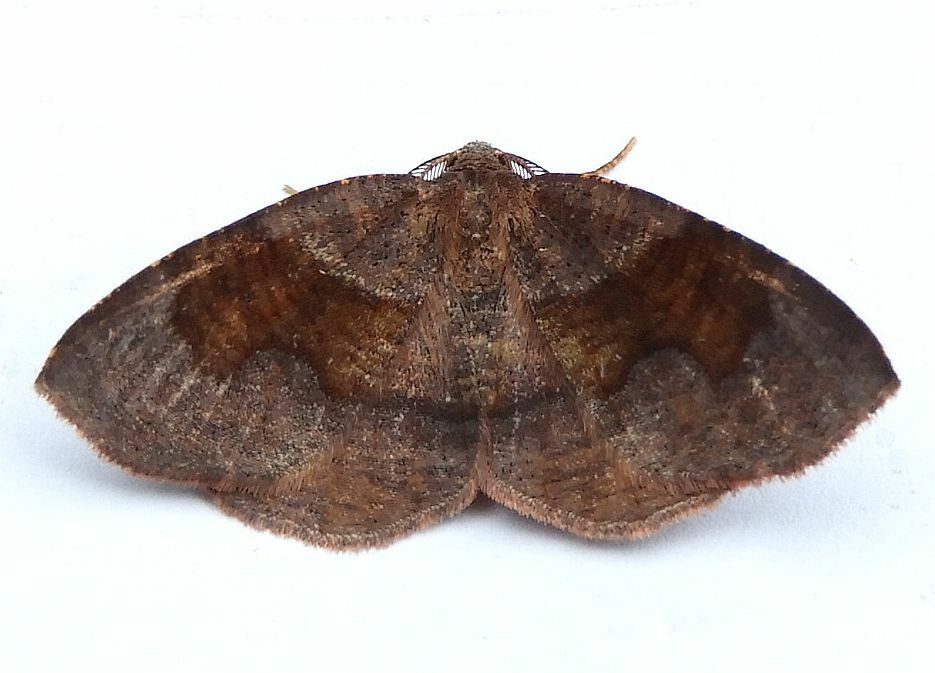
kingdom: Animalia
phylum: Arthropoda
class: Insecta
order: Lepidoptera
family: Geometridae
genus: Plagodis
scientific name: Plagodis pulveraria
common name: Barred umber
